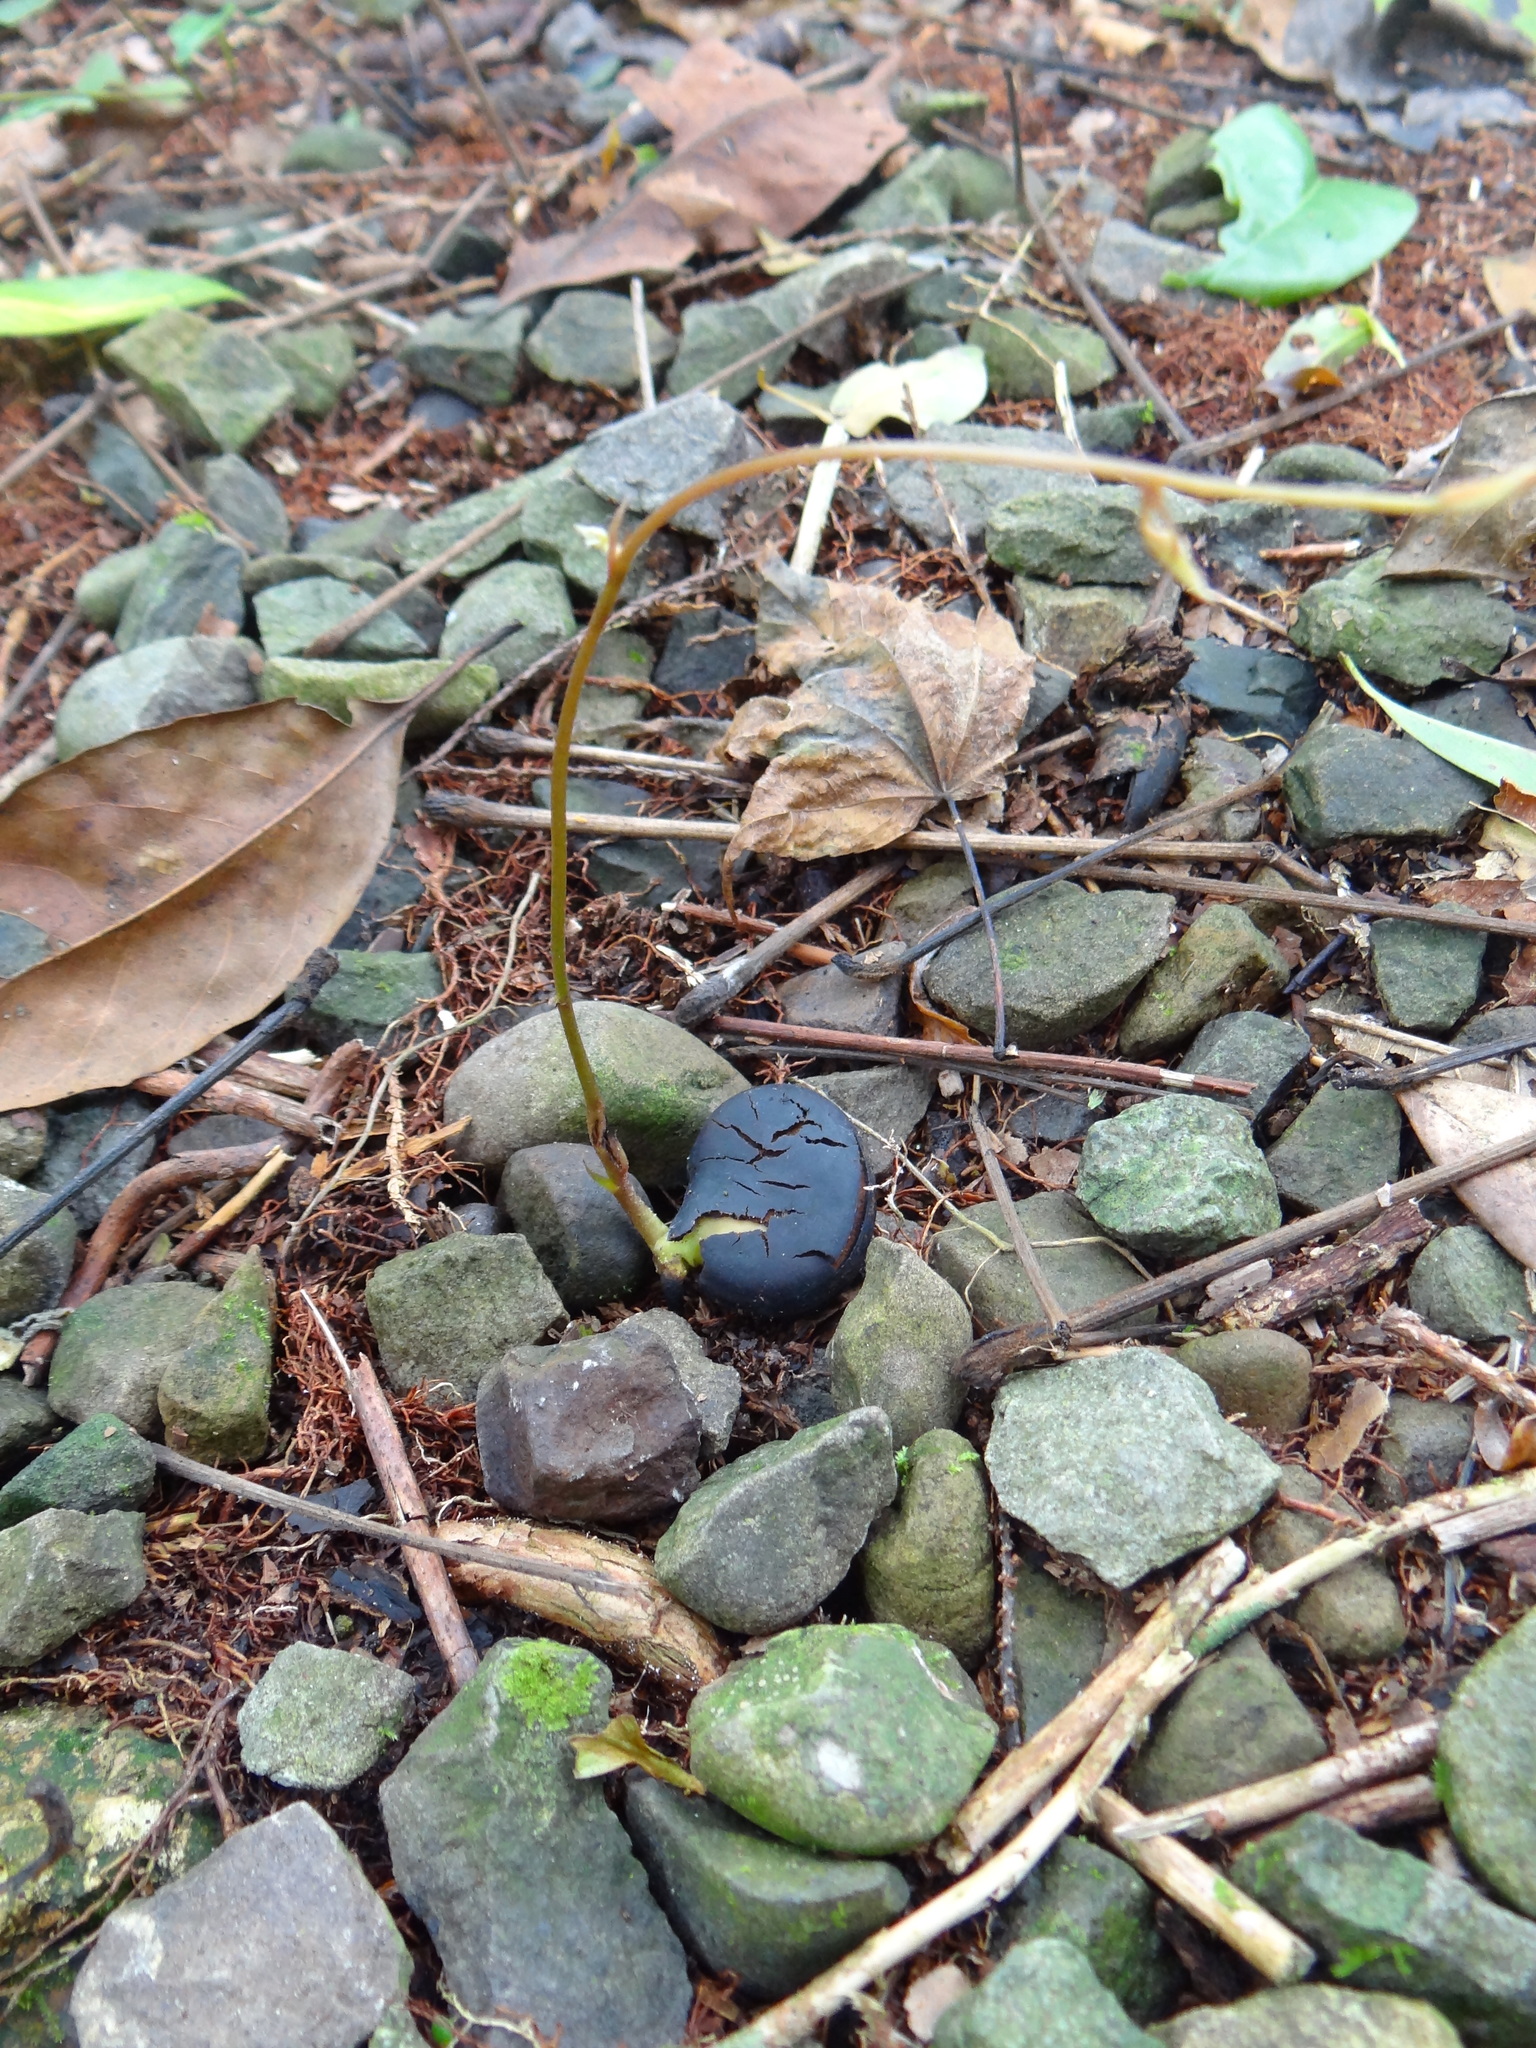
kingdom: Plantae
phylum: Tracheophyta
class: Magnoliopsida
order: Fabales
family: Fabaceae
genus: Mucuna
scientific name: Mucuna macrocarpa
